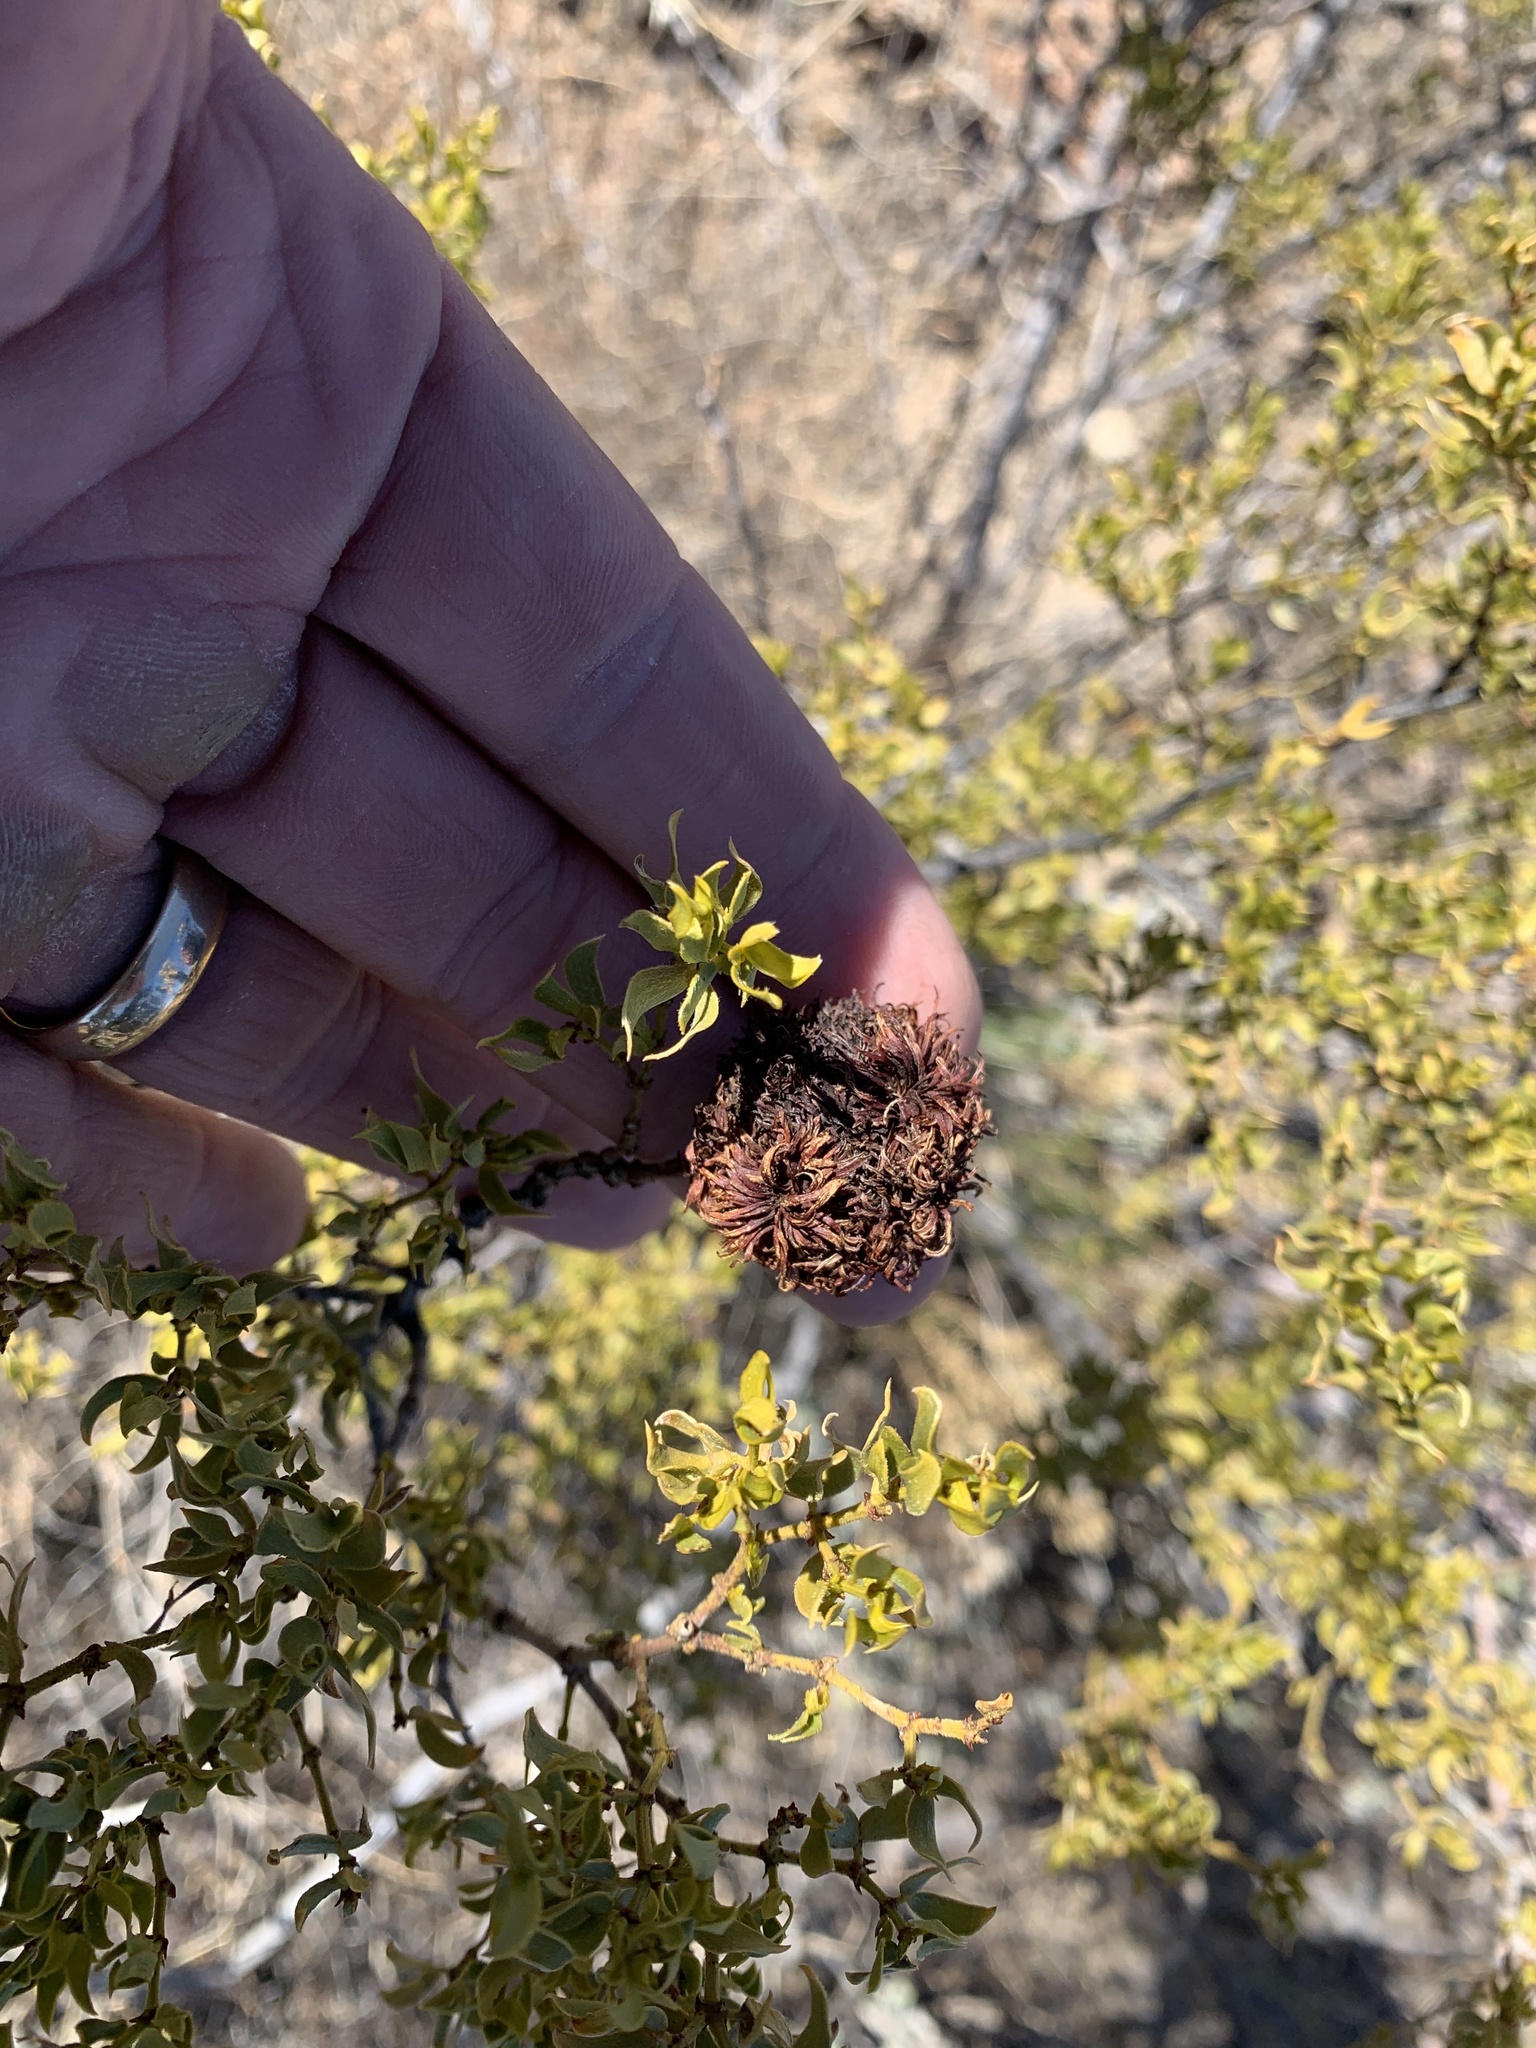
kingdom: Animalia
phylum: Arthropoda
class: Insecta
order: Diptera
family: Cecidomyiidae
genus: Asphondylia
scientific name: Asphondylia auripila
